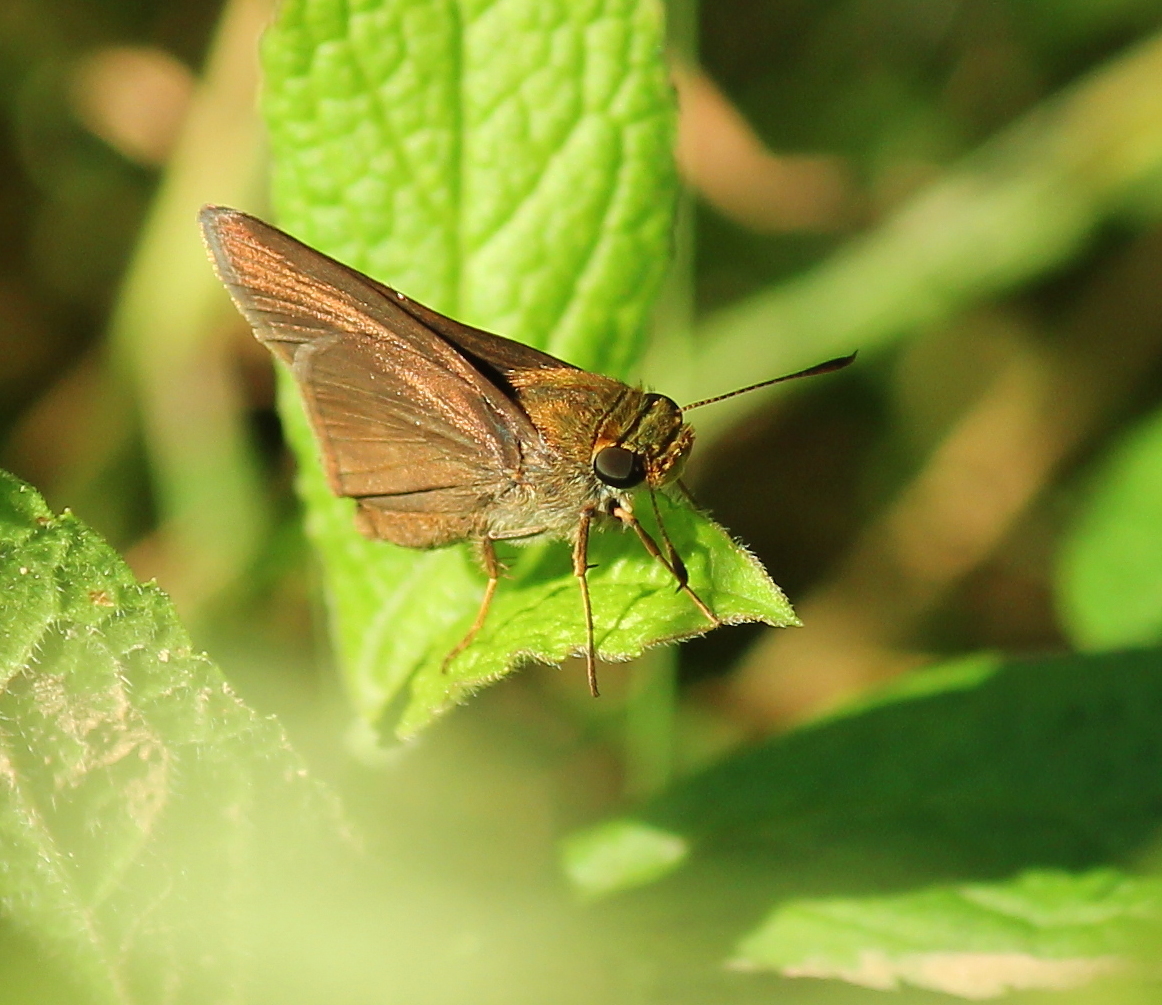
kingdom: Animalia
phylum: Arthropoda
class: Insecta
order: Lepidoptera
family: Hesperiidae
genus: Euphyes
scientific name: Euphyes vestris
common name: Dun skipper
